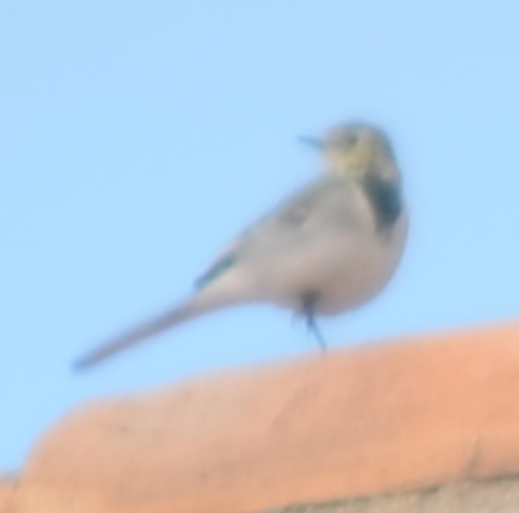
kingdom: Animalia
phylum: Chordata
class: Aves
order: Passeriformes
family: Motacillidae
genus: Motacilla
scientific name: Motacilla alba
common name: White wagtail
